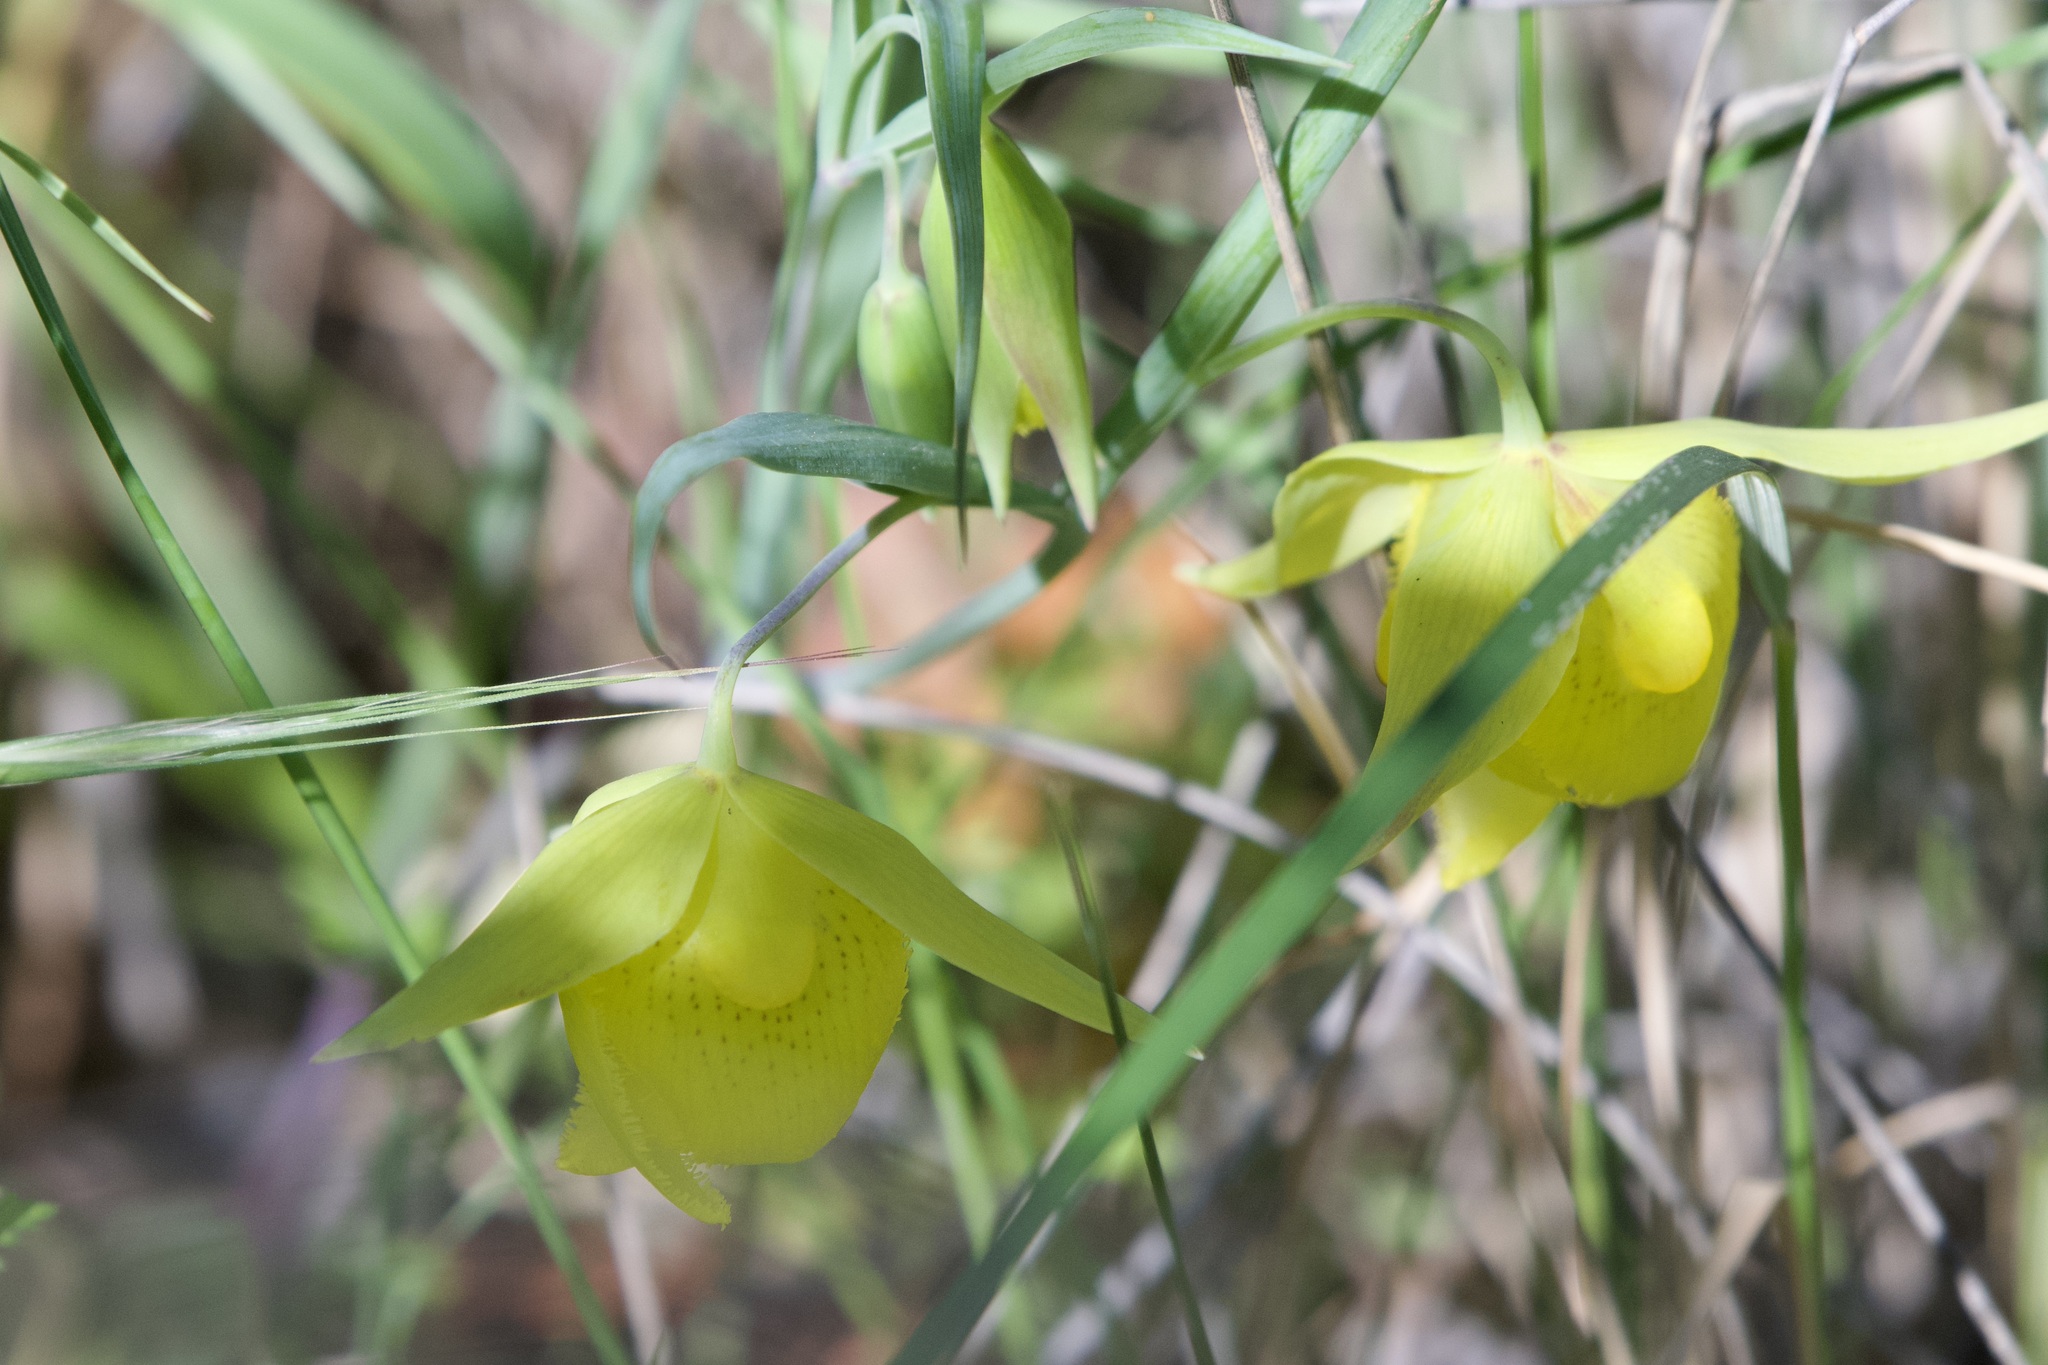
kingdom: Plantae
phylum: Tracheophyta
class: Liliopsida
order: Liliales
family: Liliaceae
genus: Calochortus
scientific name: Calochortus pulchellus
